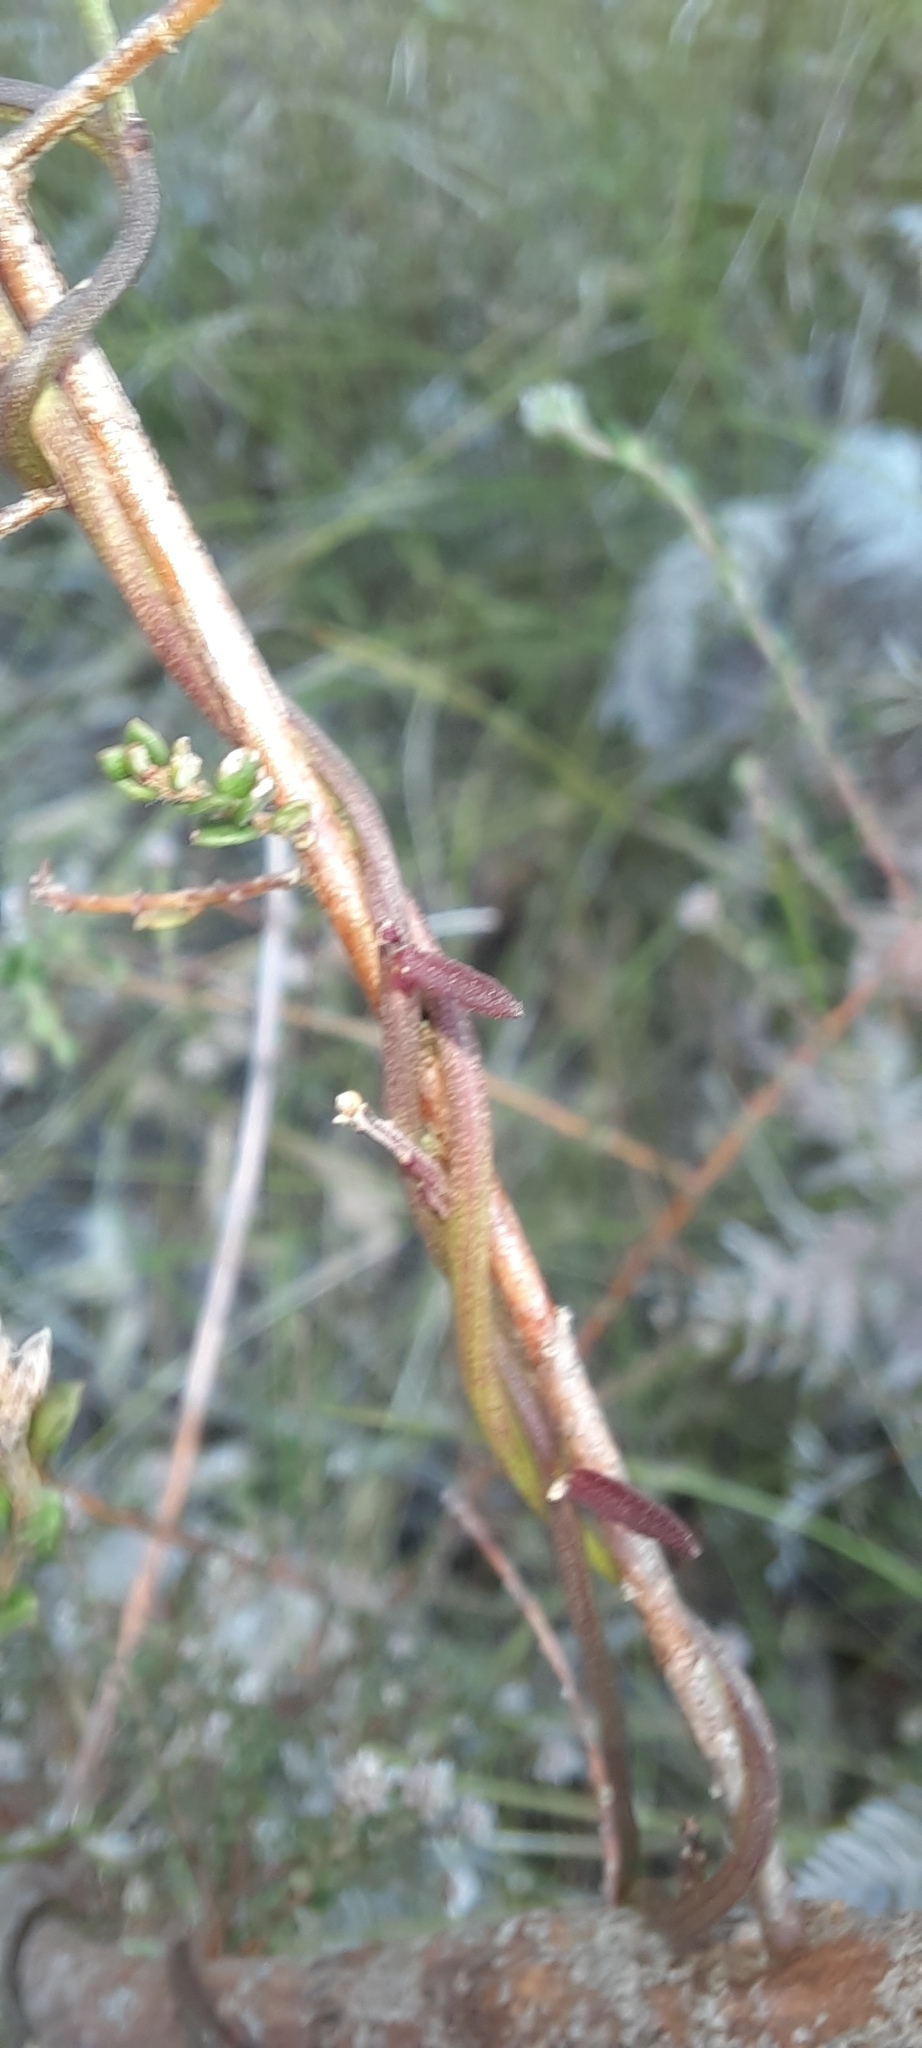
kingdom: Plantae
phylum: Tracheophyta
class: Magnoliopsida
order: Fabales
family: Polygalaceae
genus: Comesperma
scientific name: Comesperma volubile
